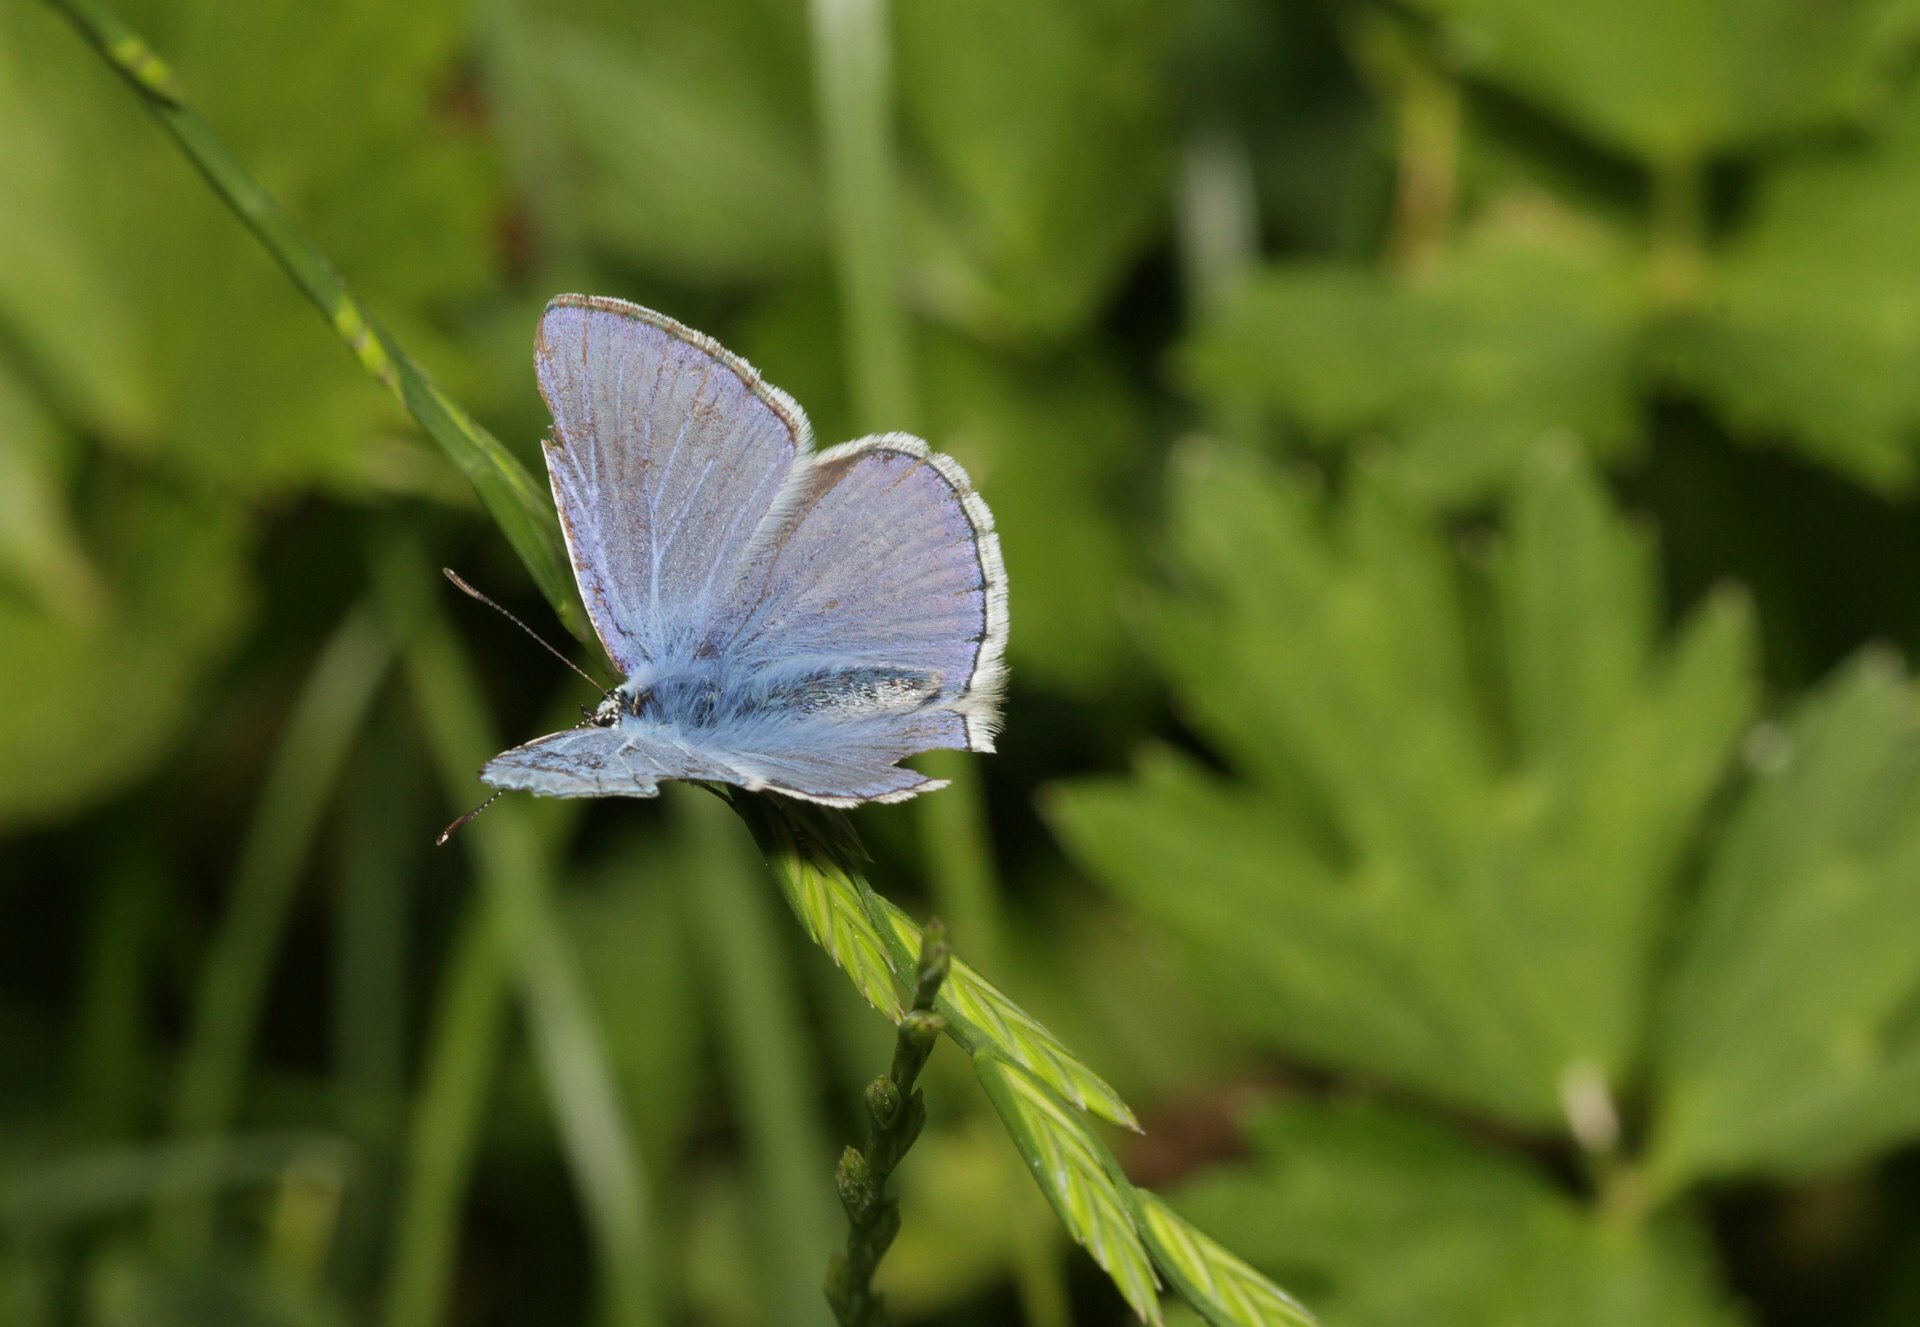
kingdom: Animalia
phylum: Arthropoda
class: Insecta
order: Lepidoptera
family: Lycaenidae
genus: Polyommatus
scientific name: Polyommatus icarus
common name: Common blue
